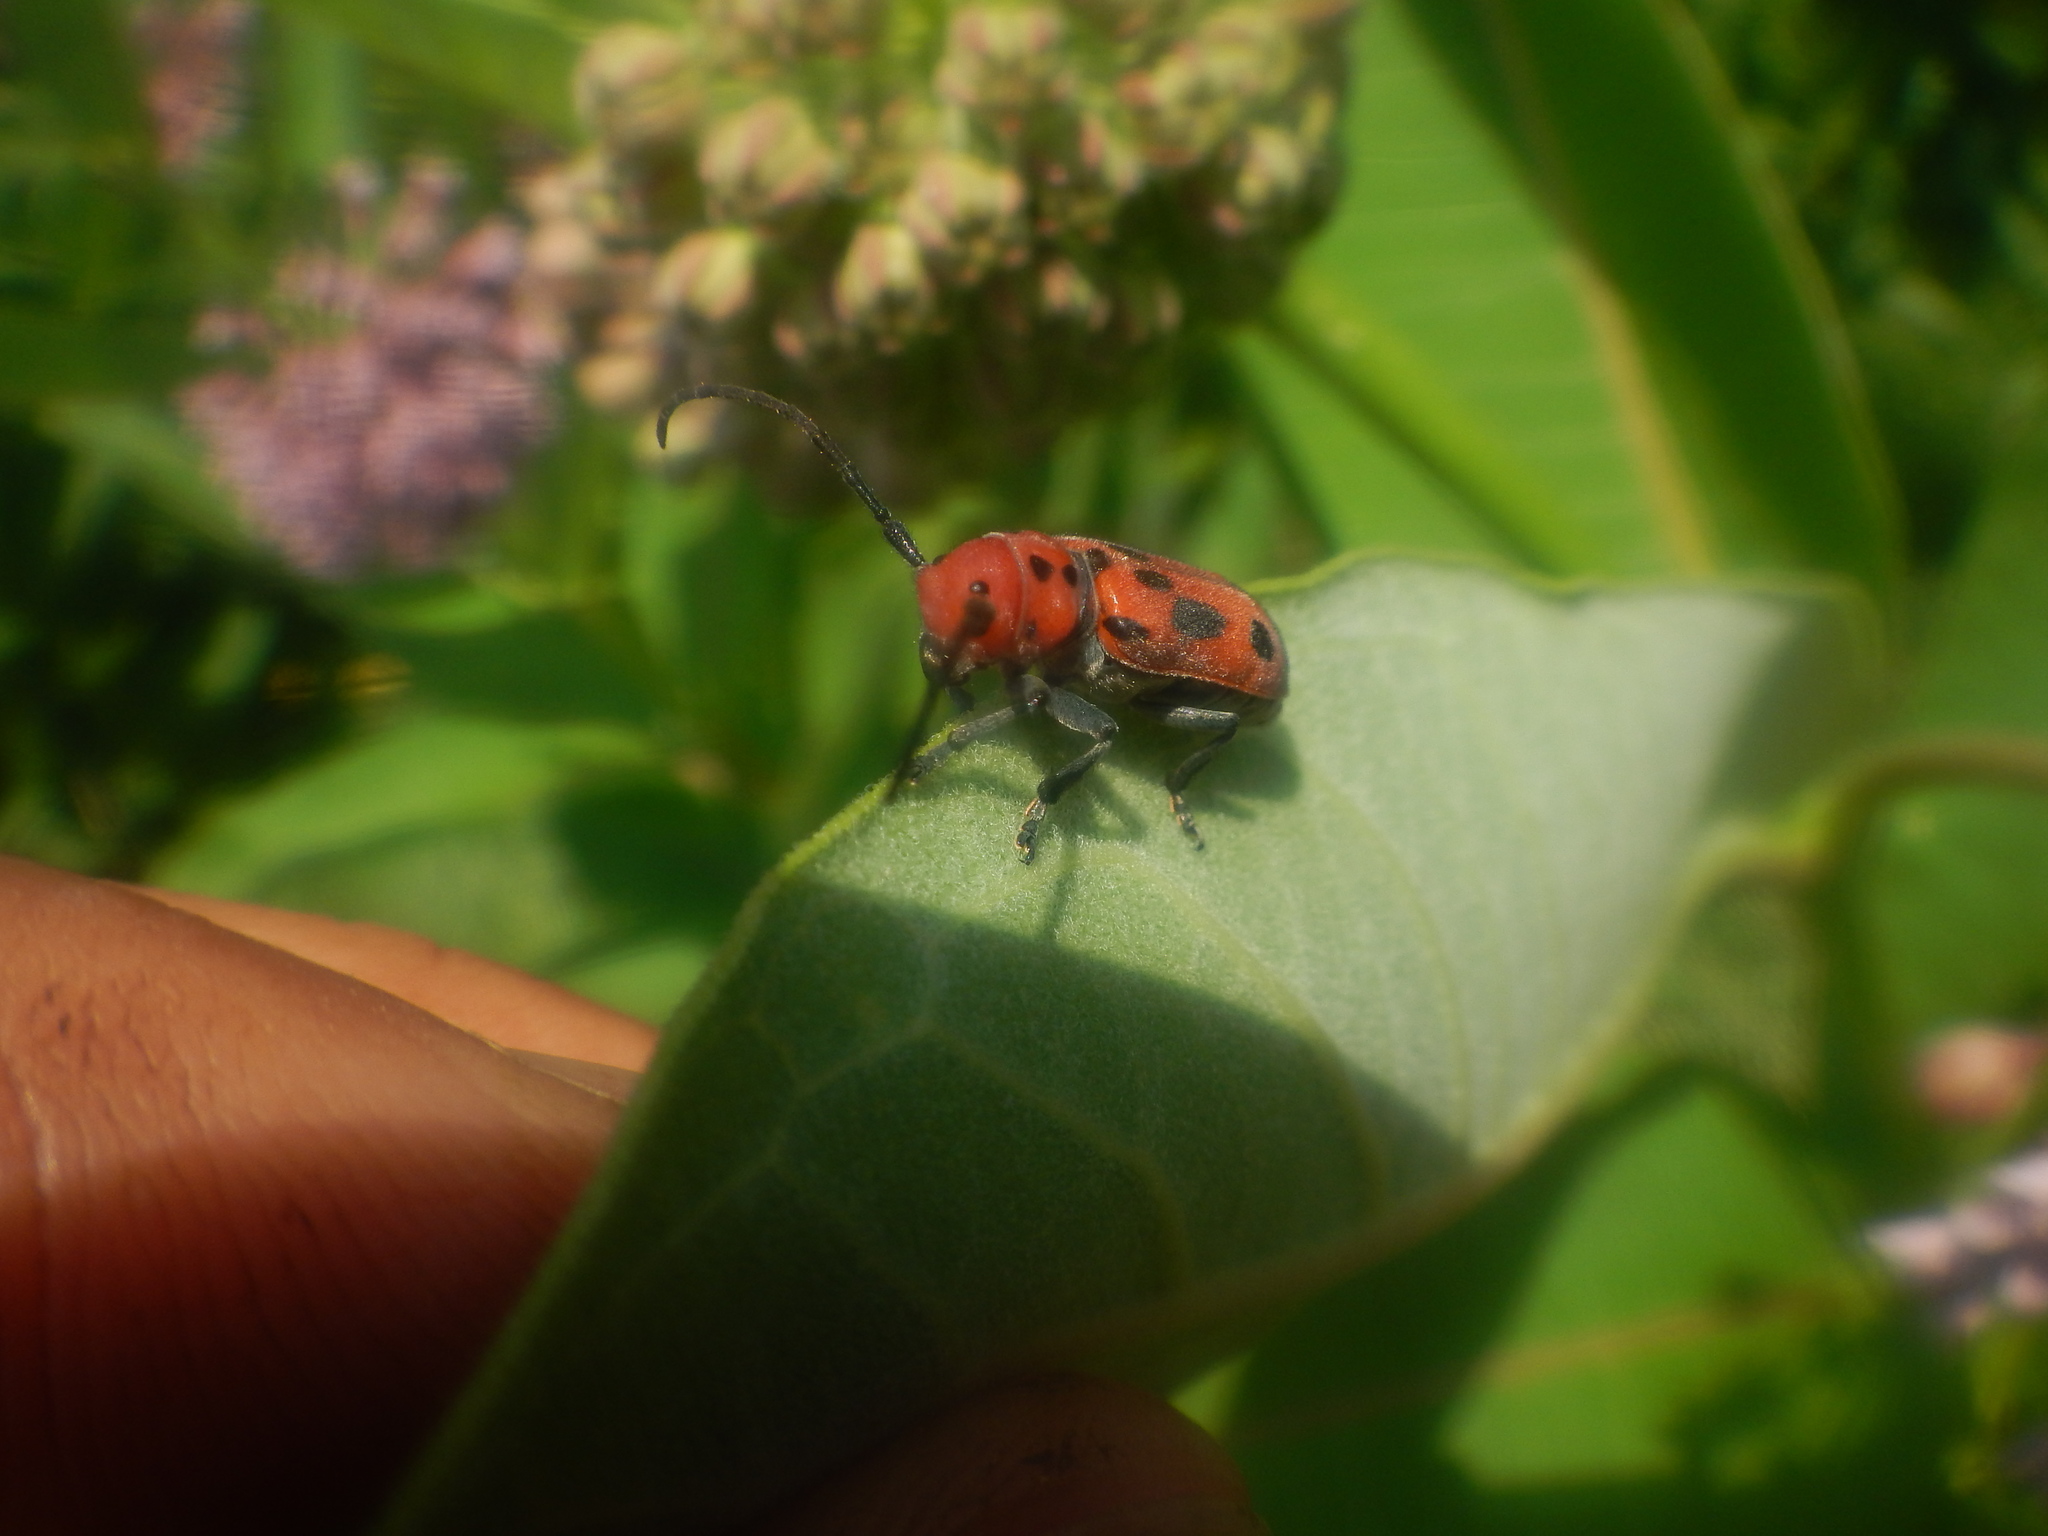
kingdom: Animalia
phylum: Arthropoda
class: Insecta
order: Coleoptera
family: Cerambycidae
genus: Tetraopes
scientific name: Tetraopes tetrophthalmus
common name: Red milkweed beetle
